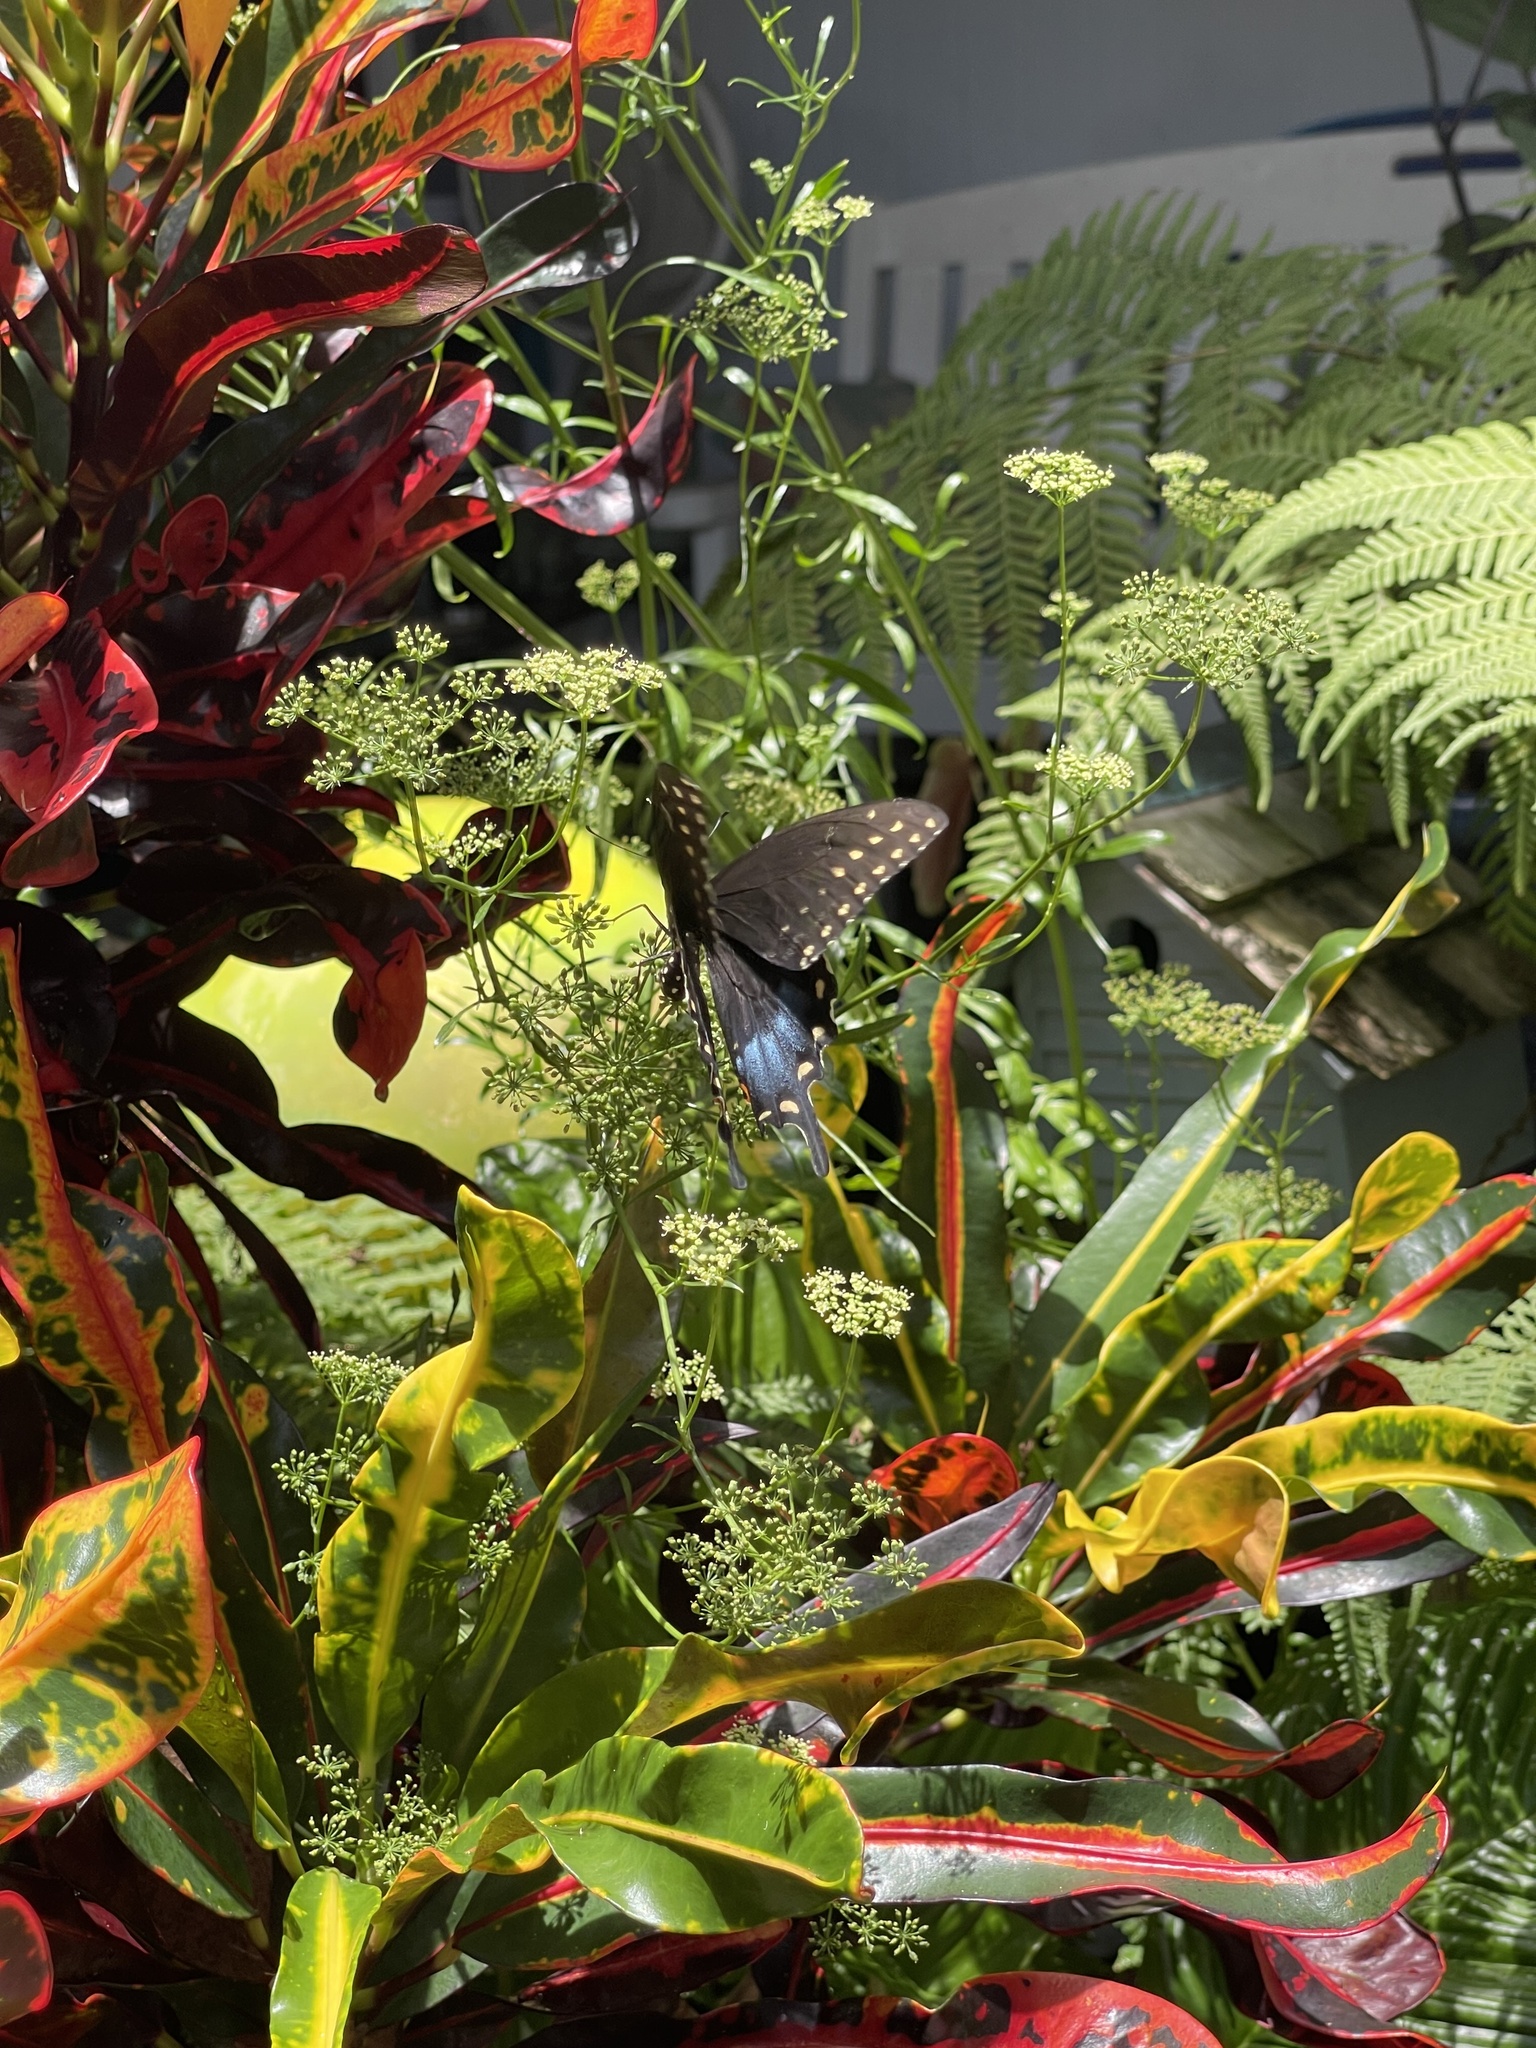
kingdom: Animalia
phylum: Arthropoda
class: Insecta
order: Lepidoptera
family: Papilionidae
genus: Papilio
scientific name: Papilio polyxenes
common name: Black swallowtail
